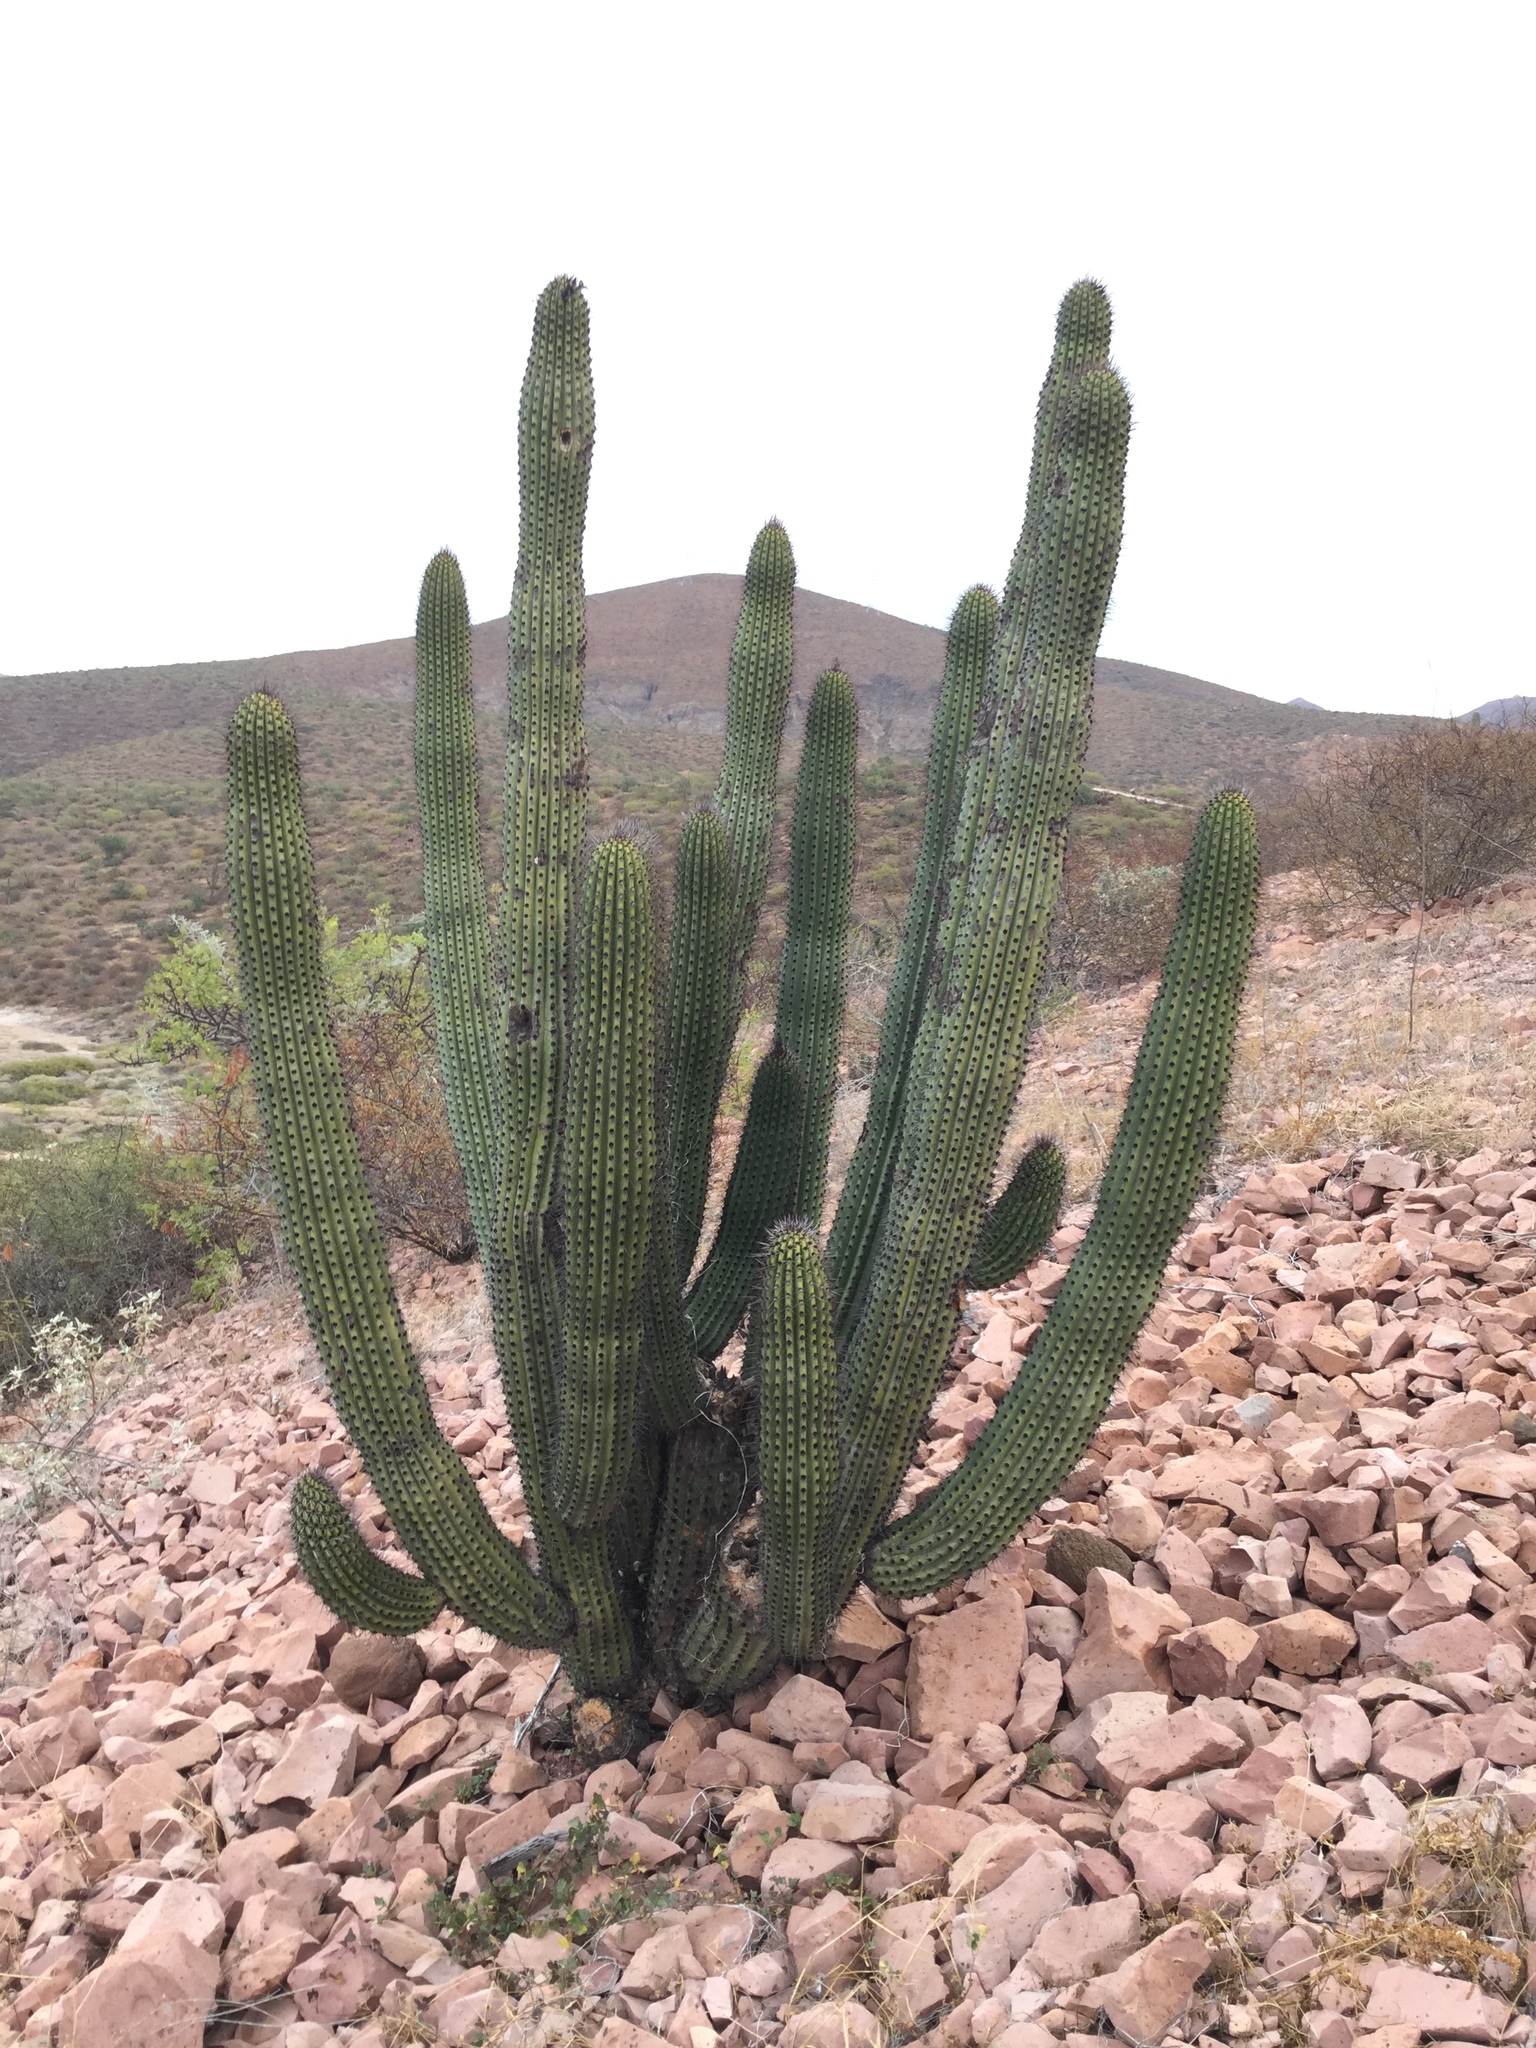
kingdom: Plantae
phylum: Tracheophyta
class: Magnoliopsida
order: Caryophyllales
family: Cactaceae
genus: Stenocereus
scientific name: Stenocereus thurberi
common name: Organ pipe cactus
